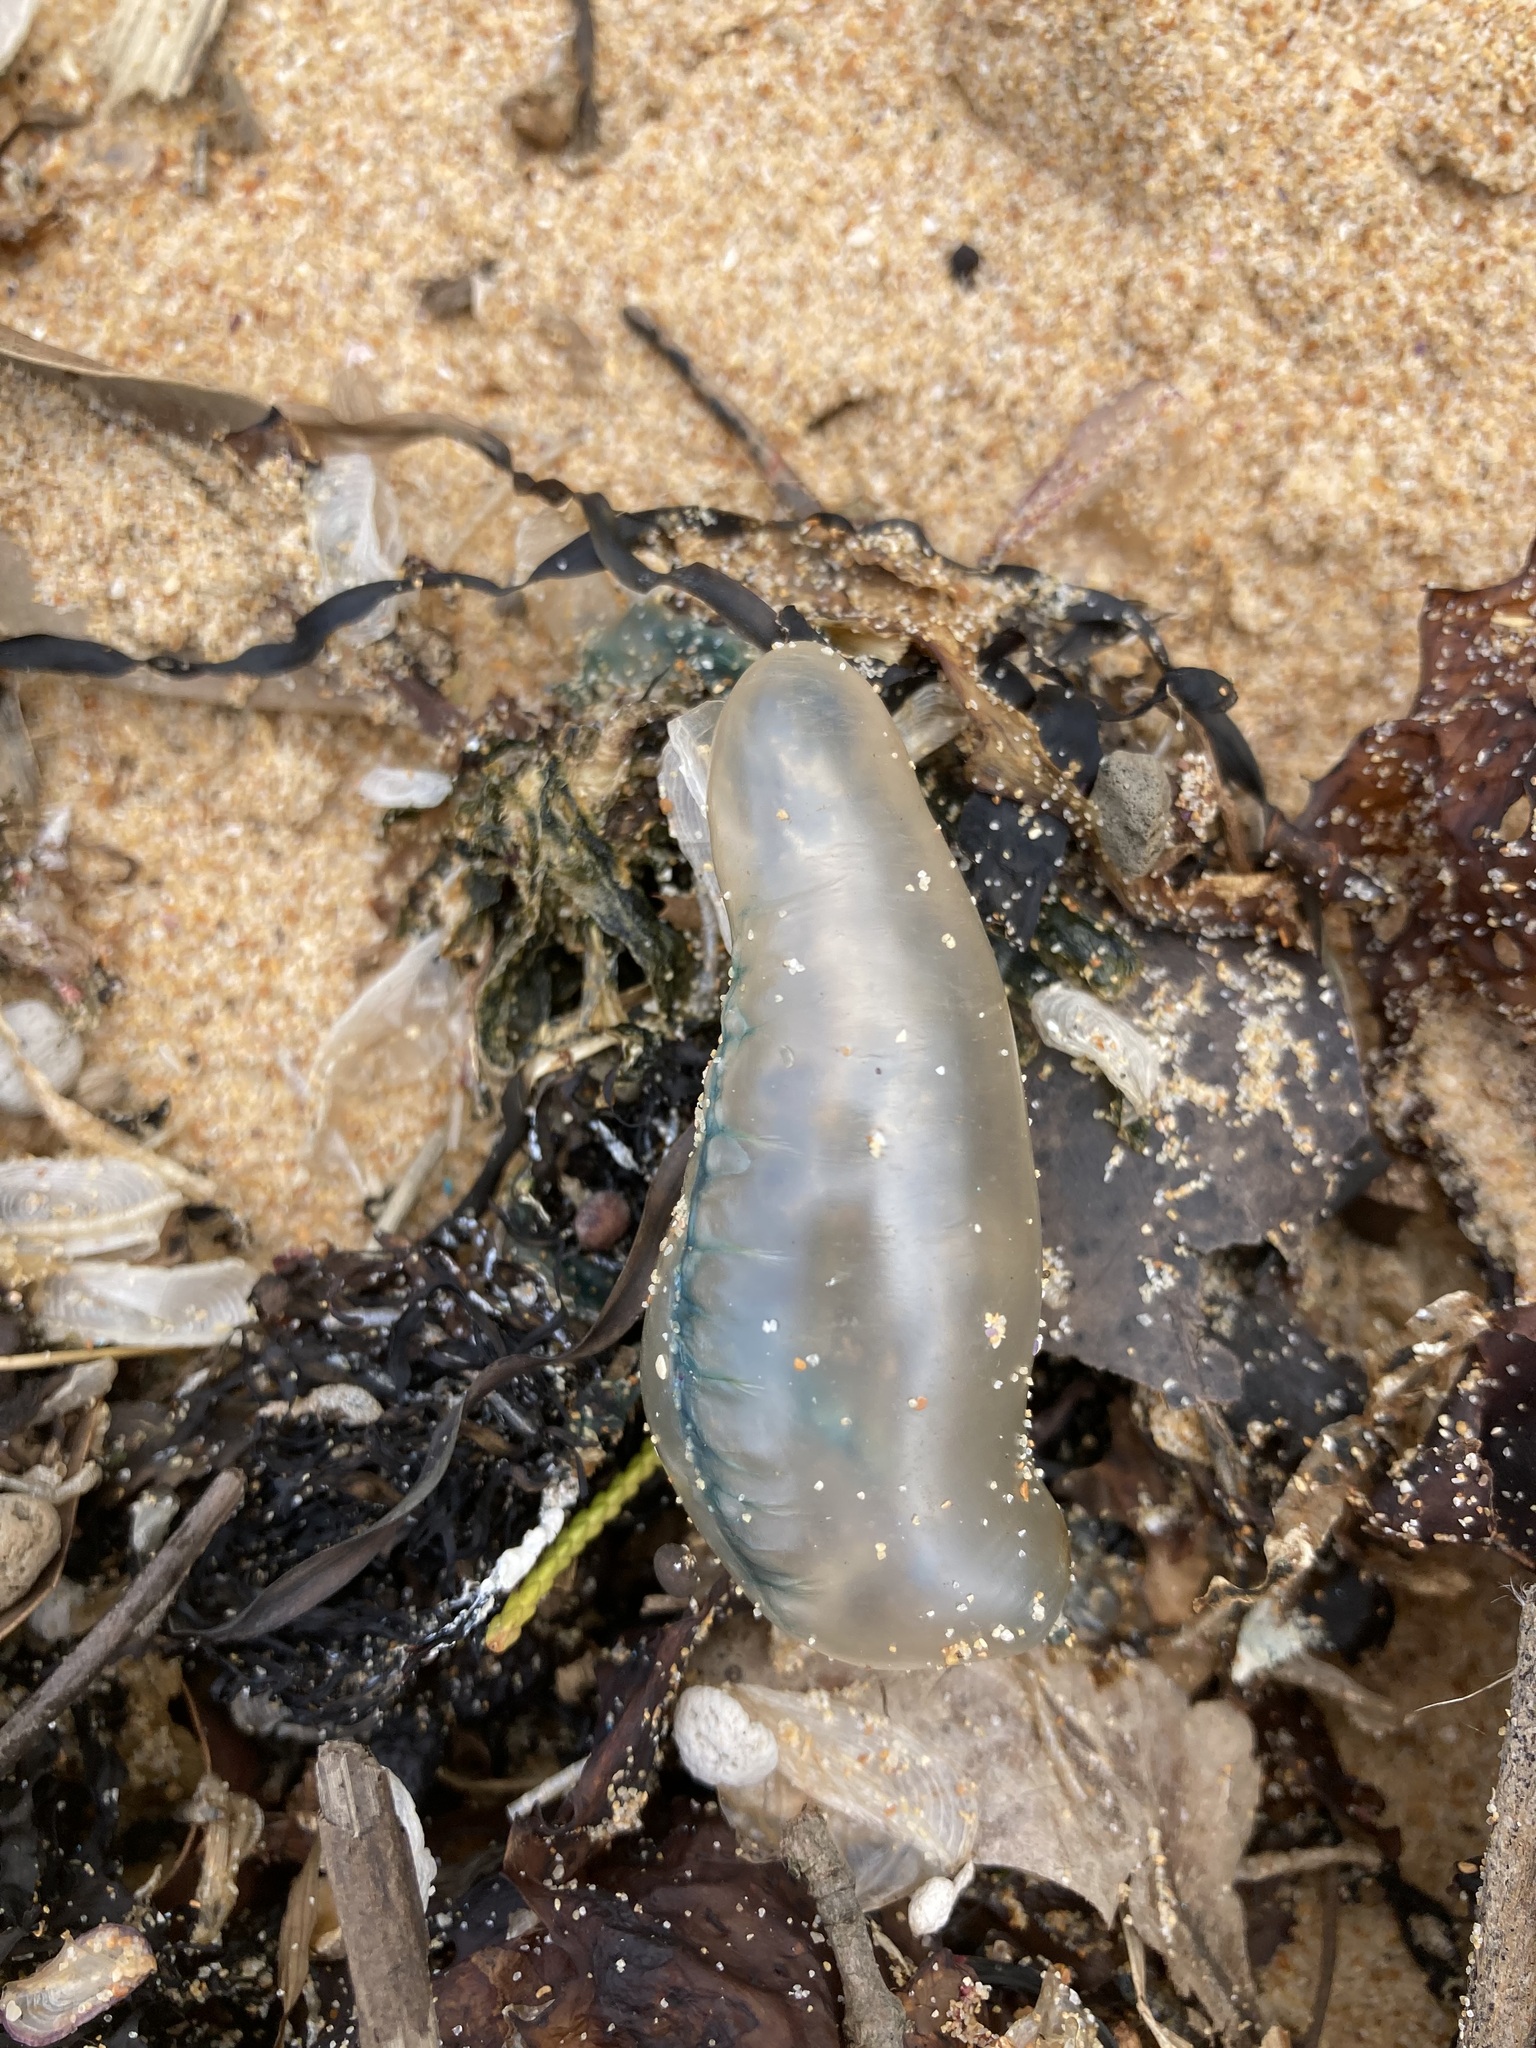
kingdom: Animalia
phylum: Cnidaria
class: Hydrozoa
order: Siphonophorae
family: Physaliidae
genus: Physalia
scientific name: Physalia physalis
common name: Portuguese man-of-war
